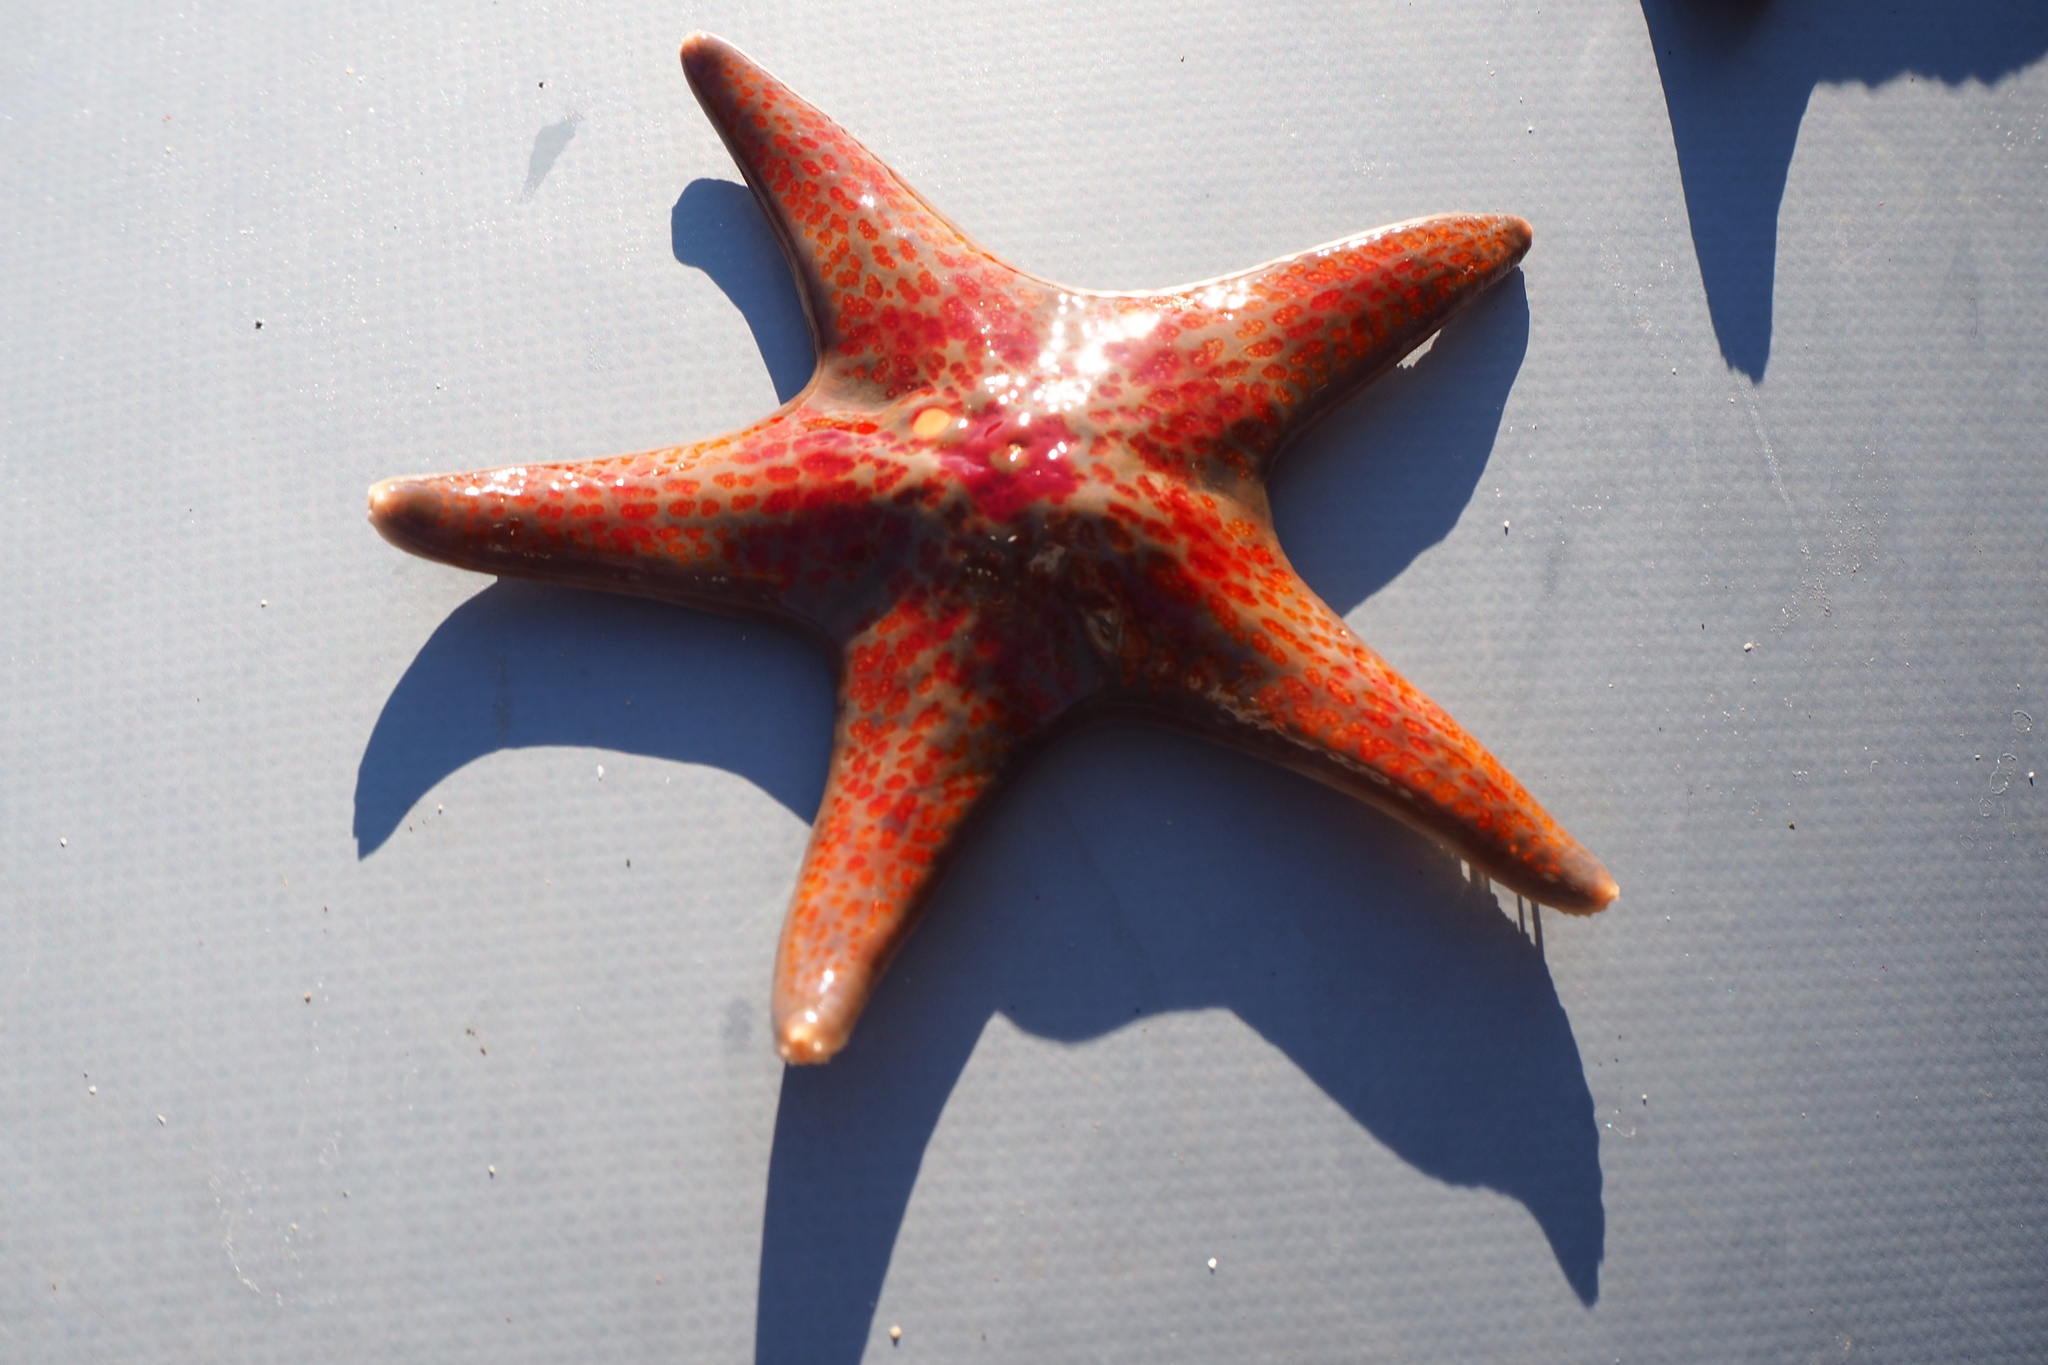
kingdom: Animalia
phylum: Echinodermata
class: Asteroidea
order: Valvatida
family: Asteropseidae
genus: Dermasterias
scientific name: Dermasterias imbricata
